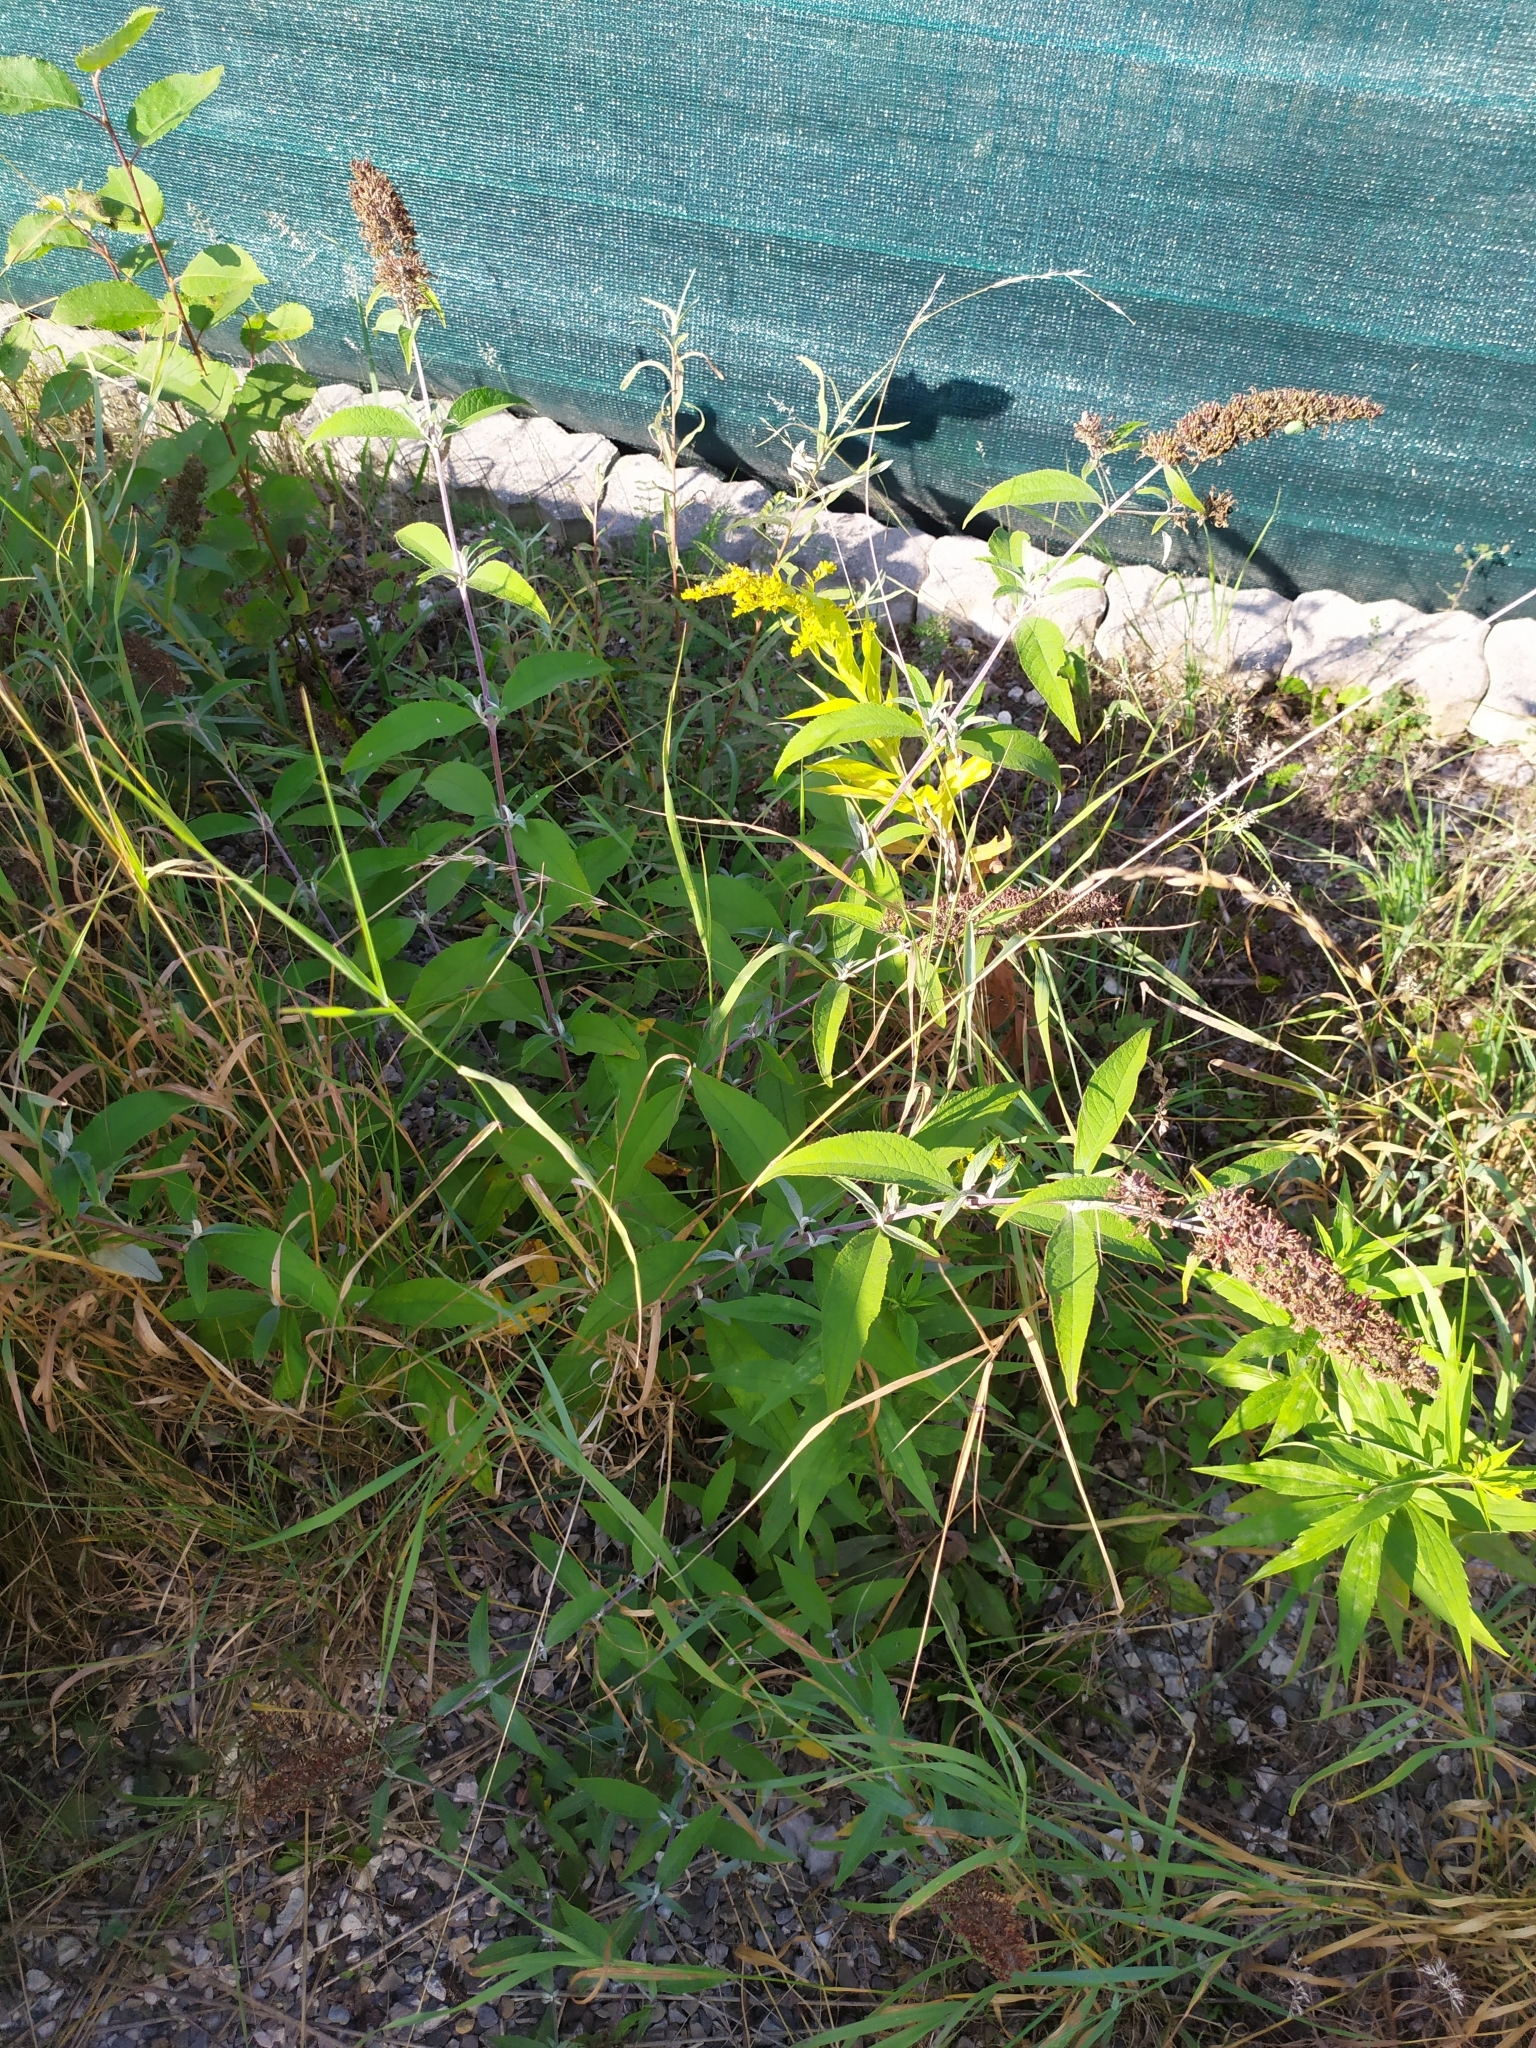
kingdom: Plantae
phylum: Tracheophyta
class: Magnoliopsida
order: Lamiales
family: Scrophulariaceae
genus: Buddleja
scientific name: Buddleja davidii
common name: Butterfly-bush
